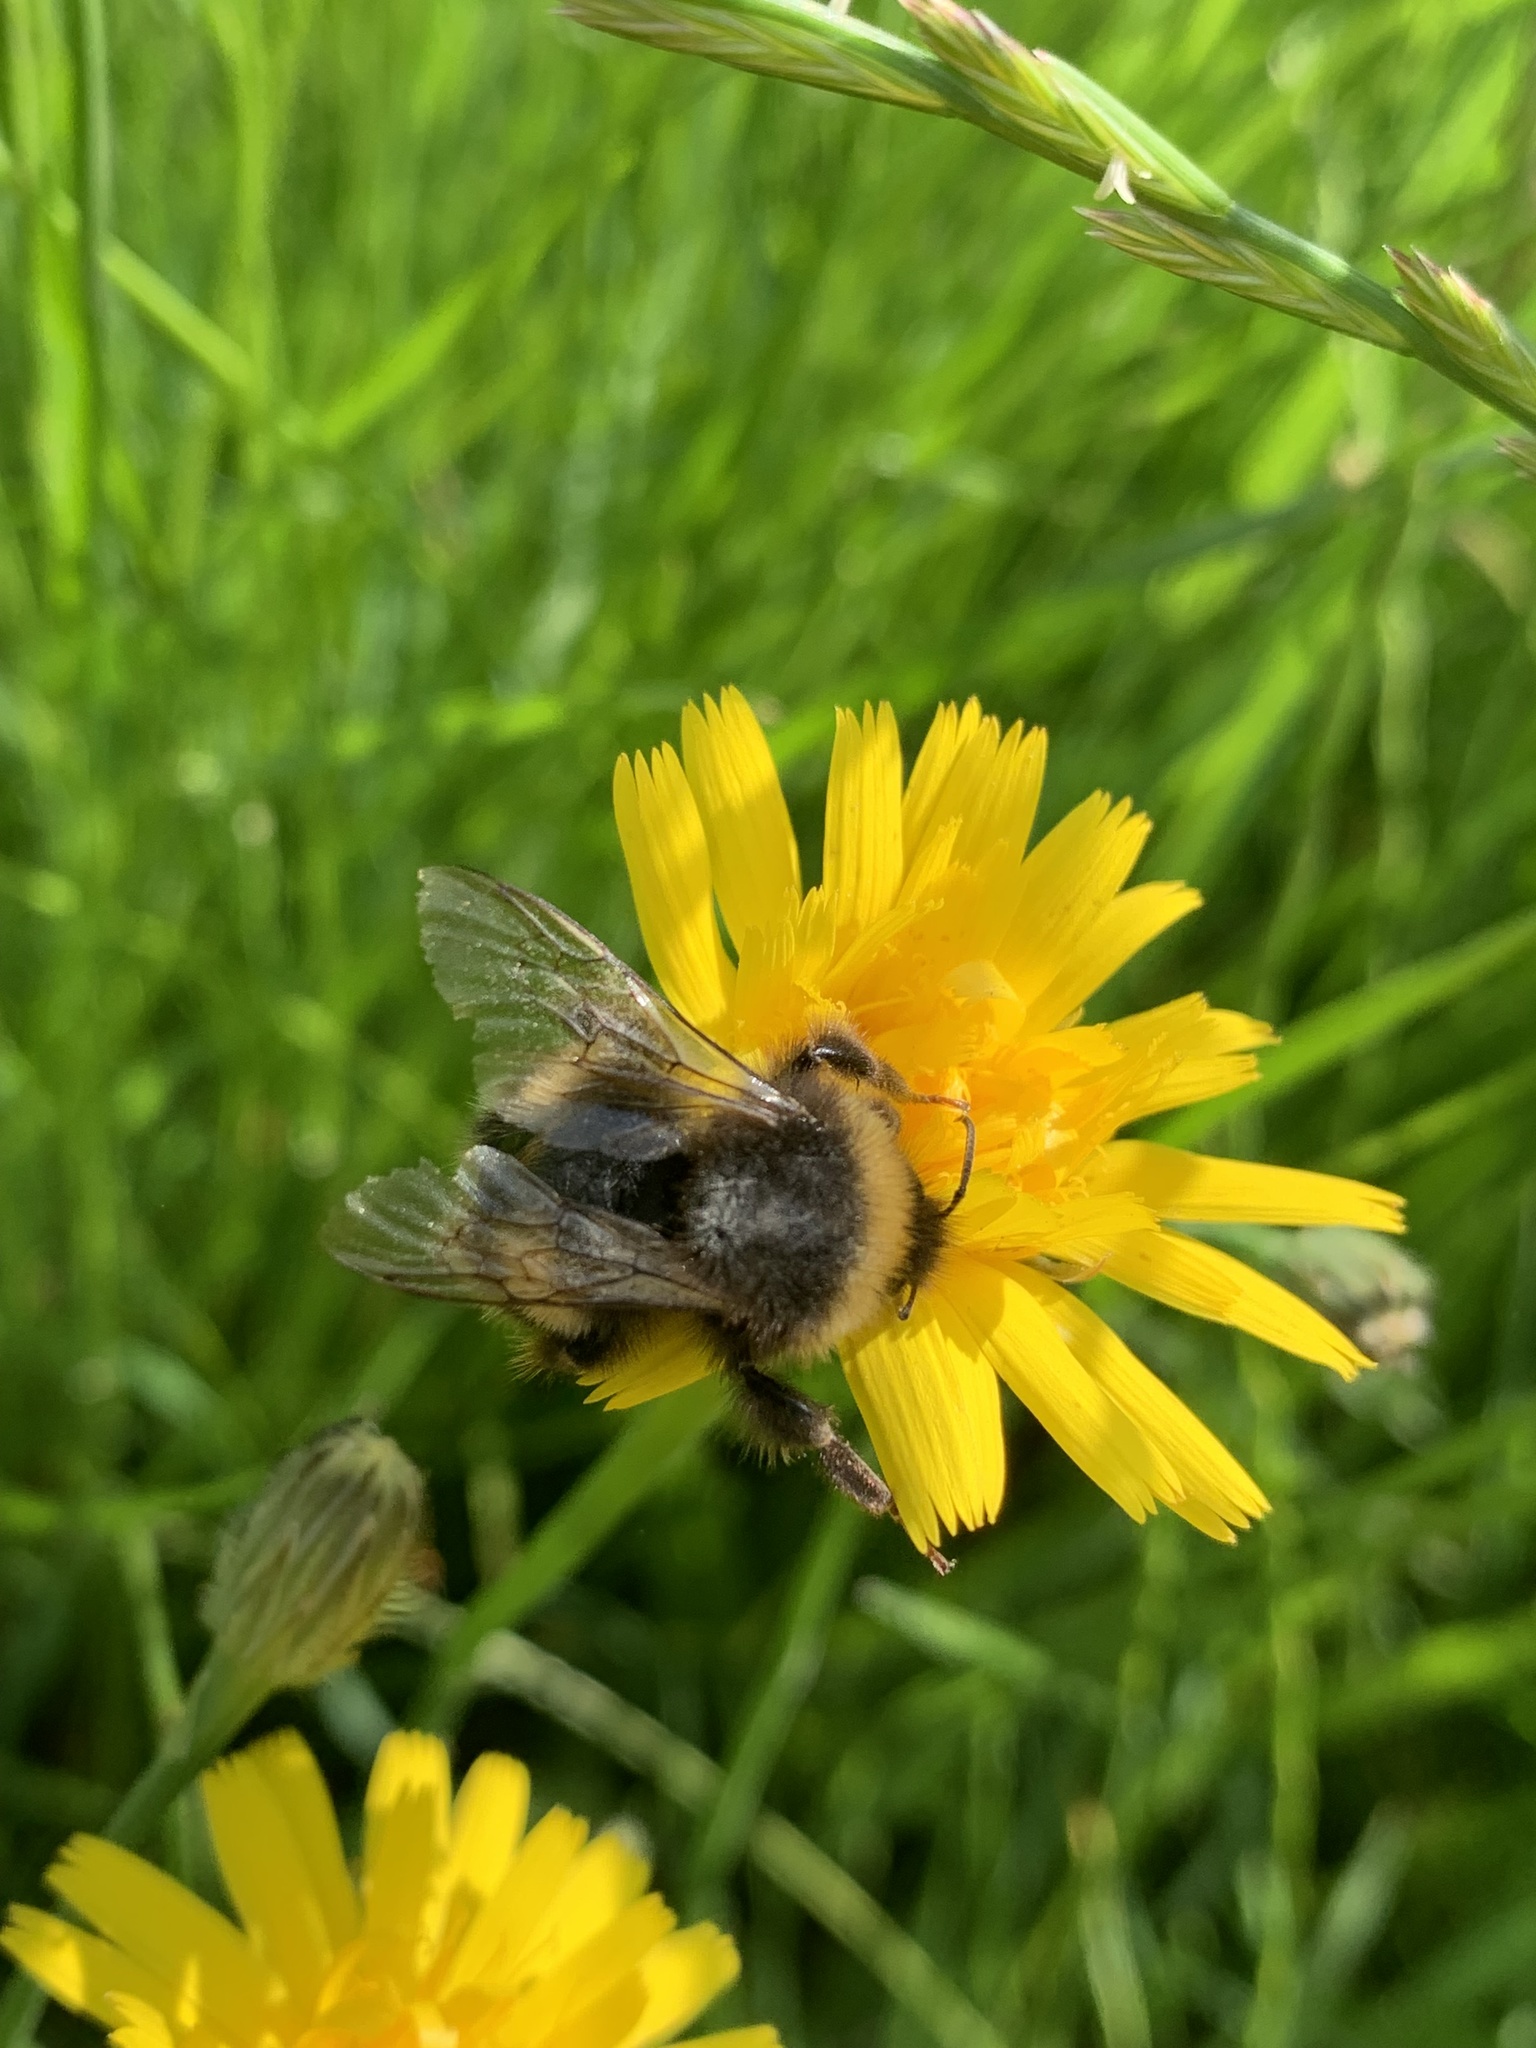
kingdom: Animalia
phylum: Arthropoda
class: Insecta
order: Hymenoptera
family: Apidae
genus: Bombus
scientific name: Bombus terrestris
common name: Buff-tailed bumblebee
